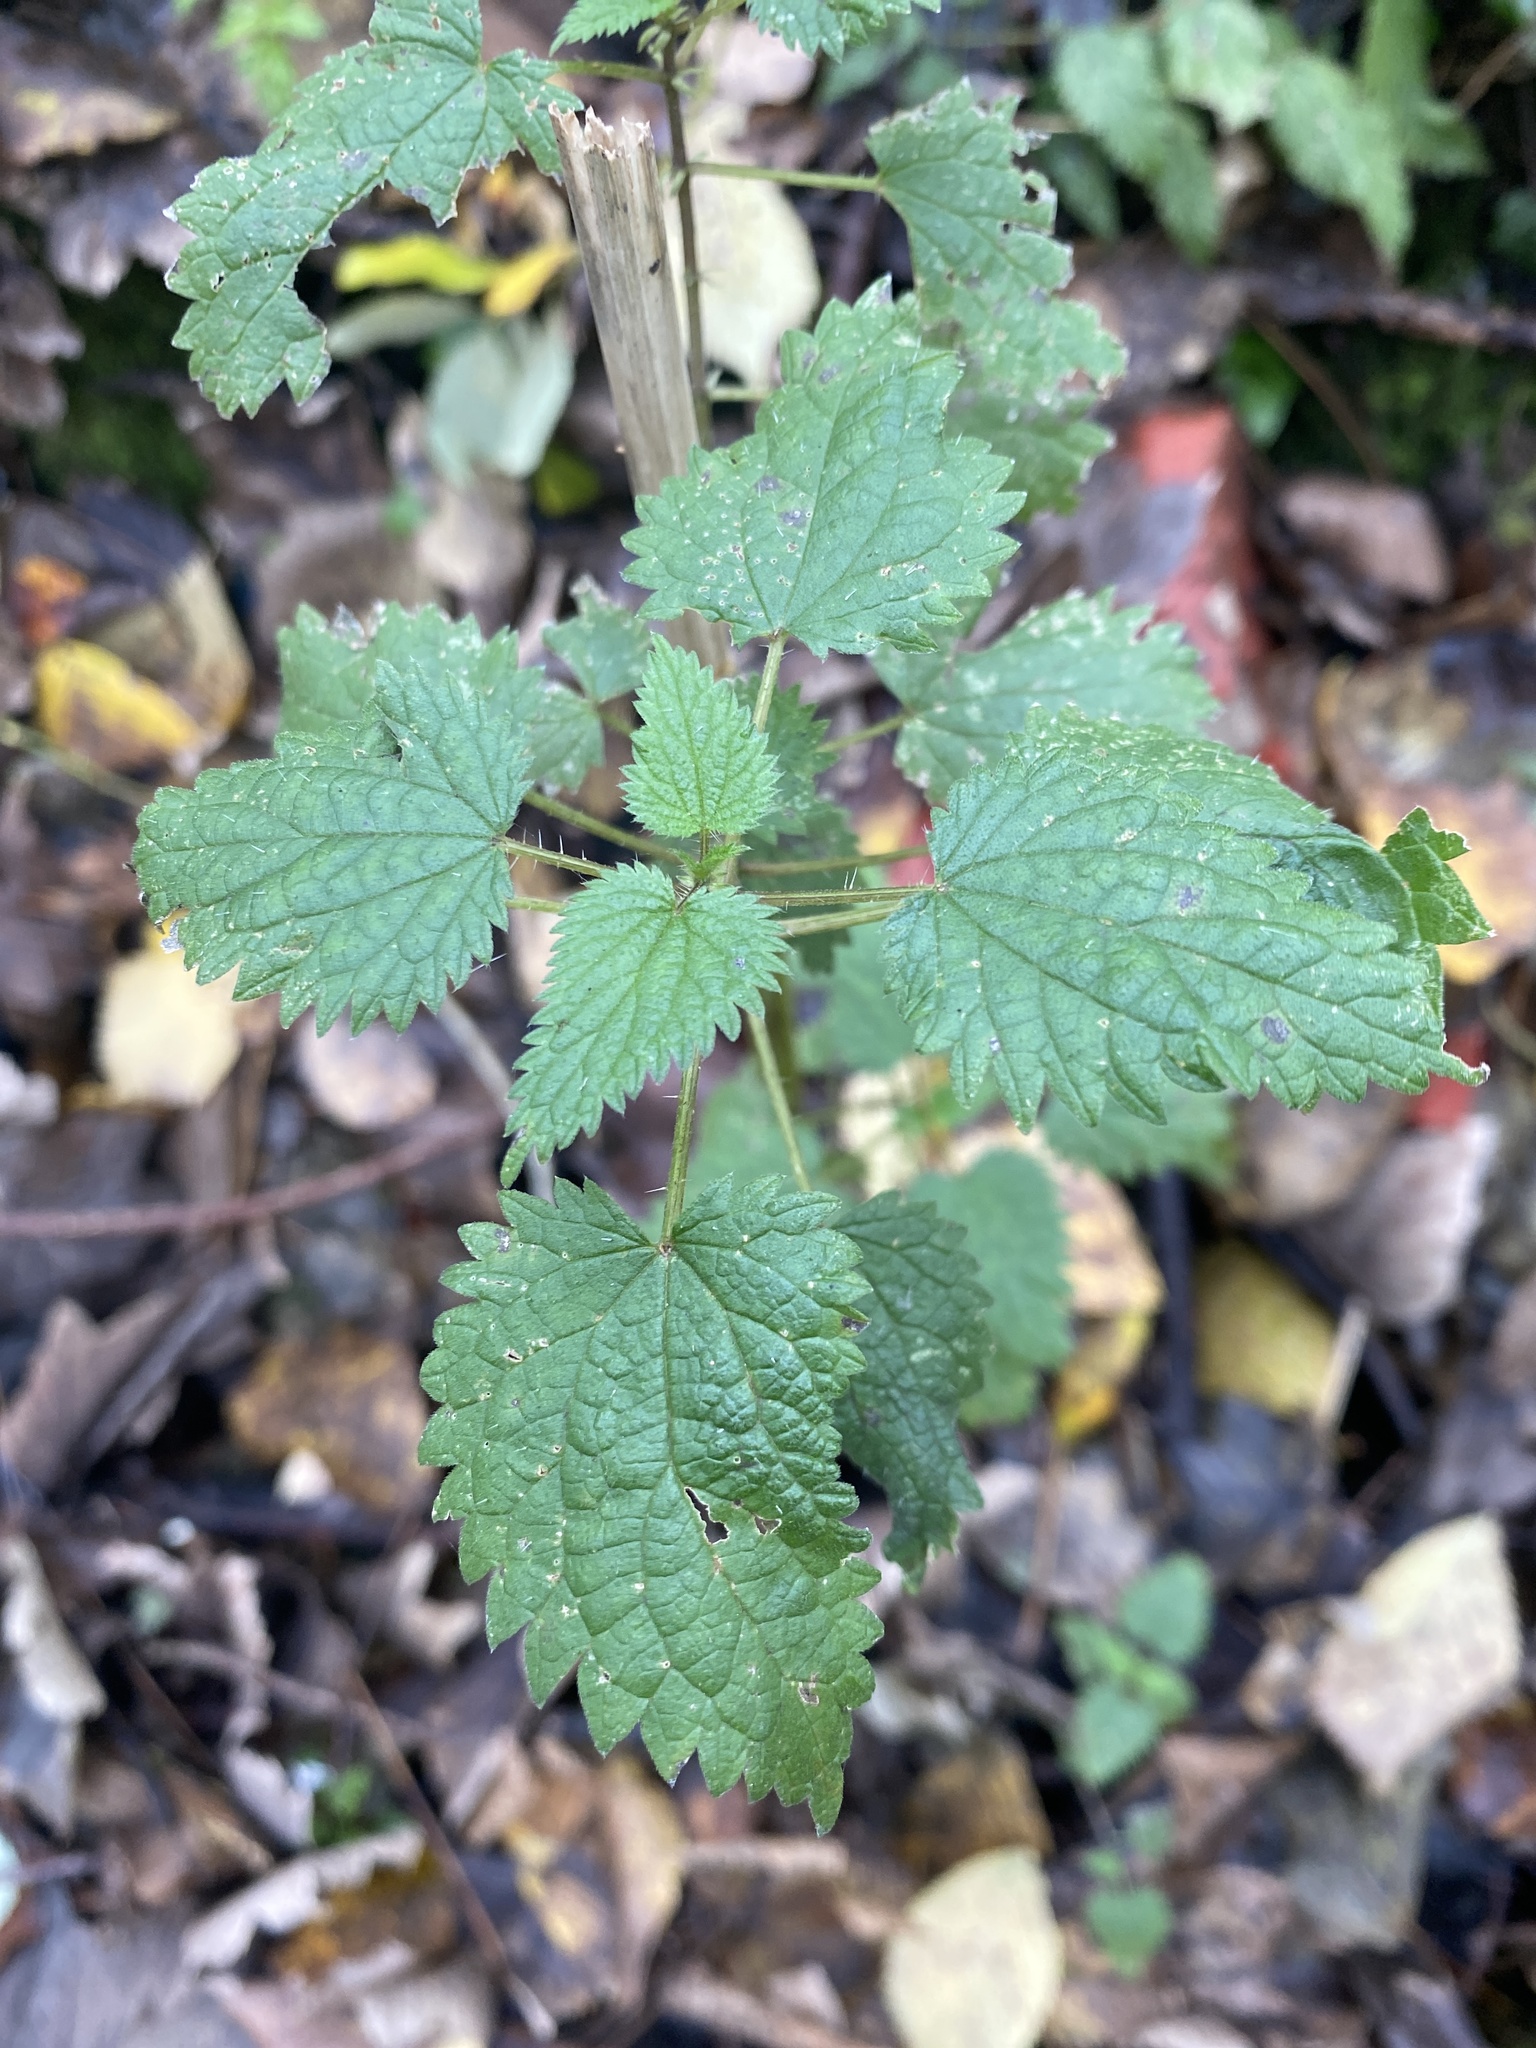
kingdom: Plantae
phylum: Tracheophyta
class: Magnoliopsida
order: Rosales
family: Urticaceae
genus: Urtica
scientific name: Urtica dioica
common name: Common nettle
